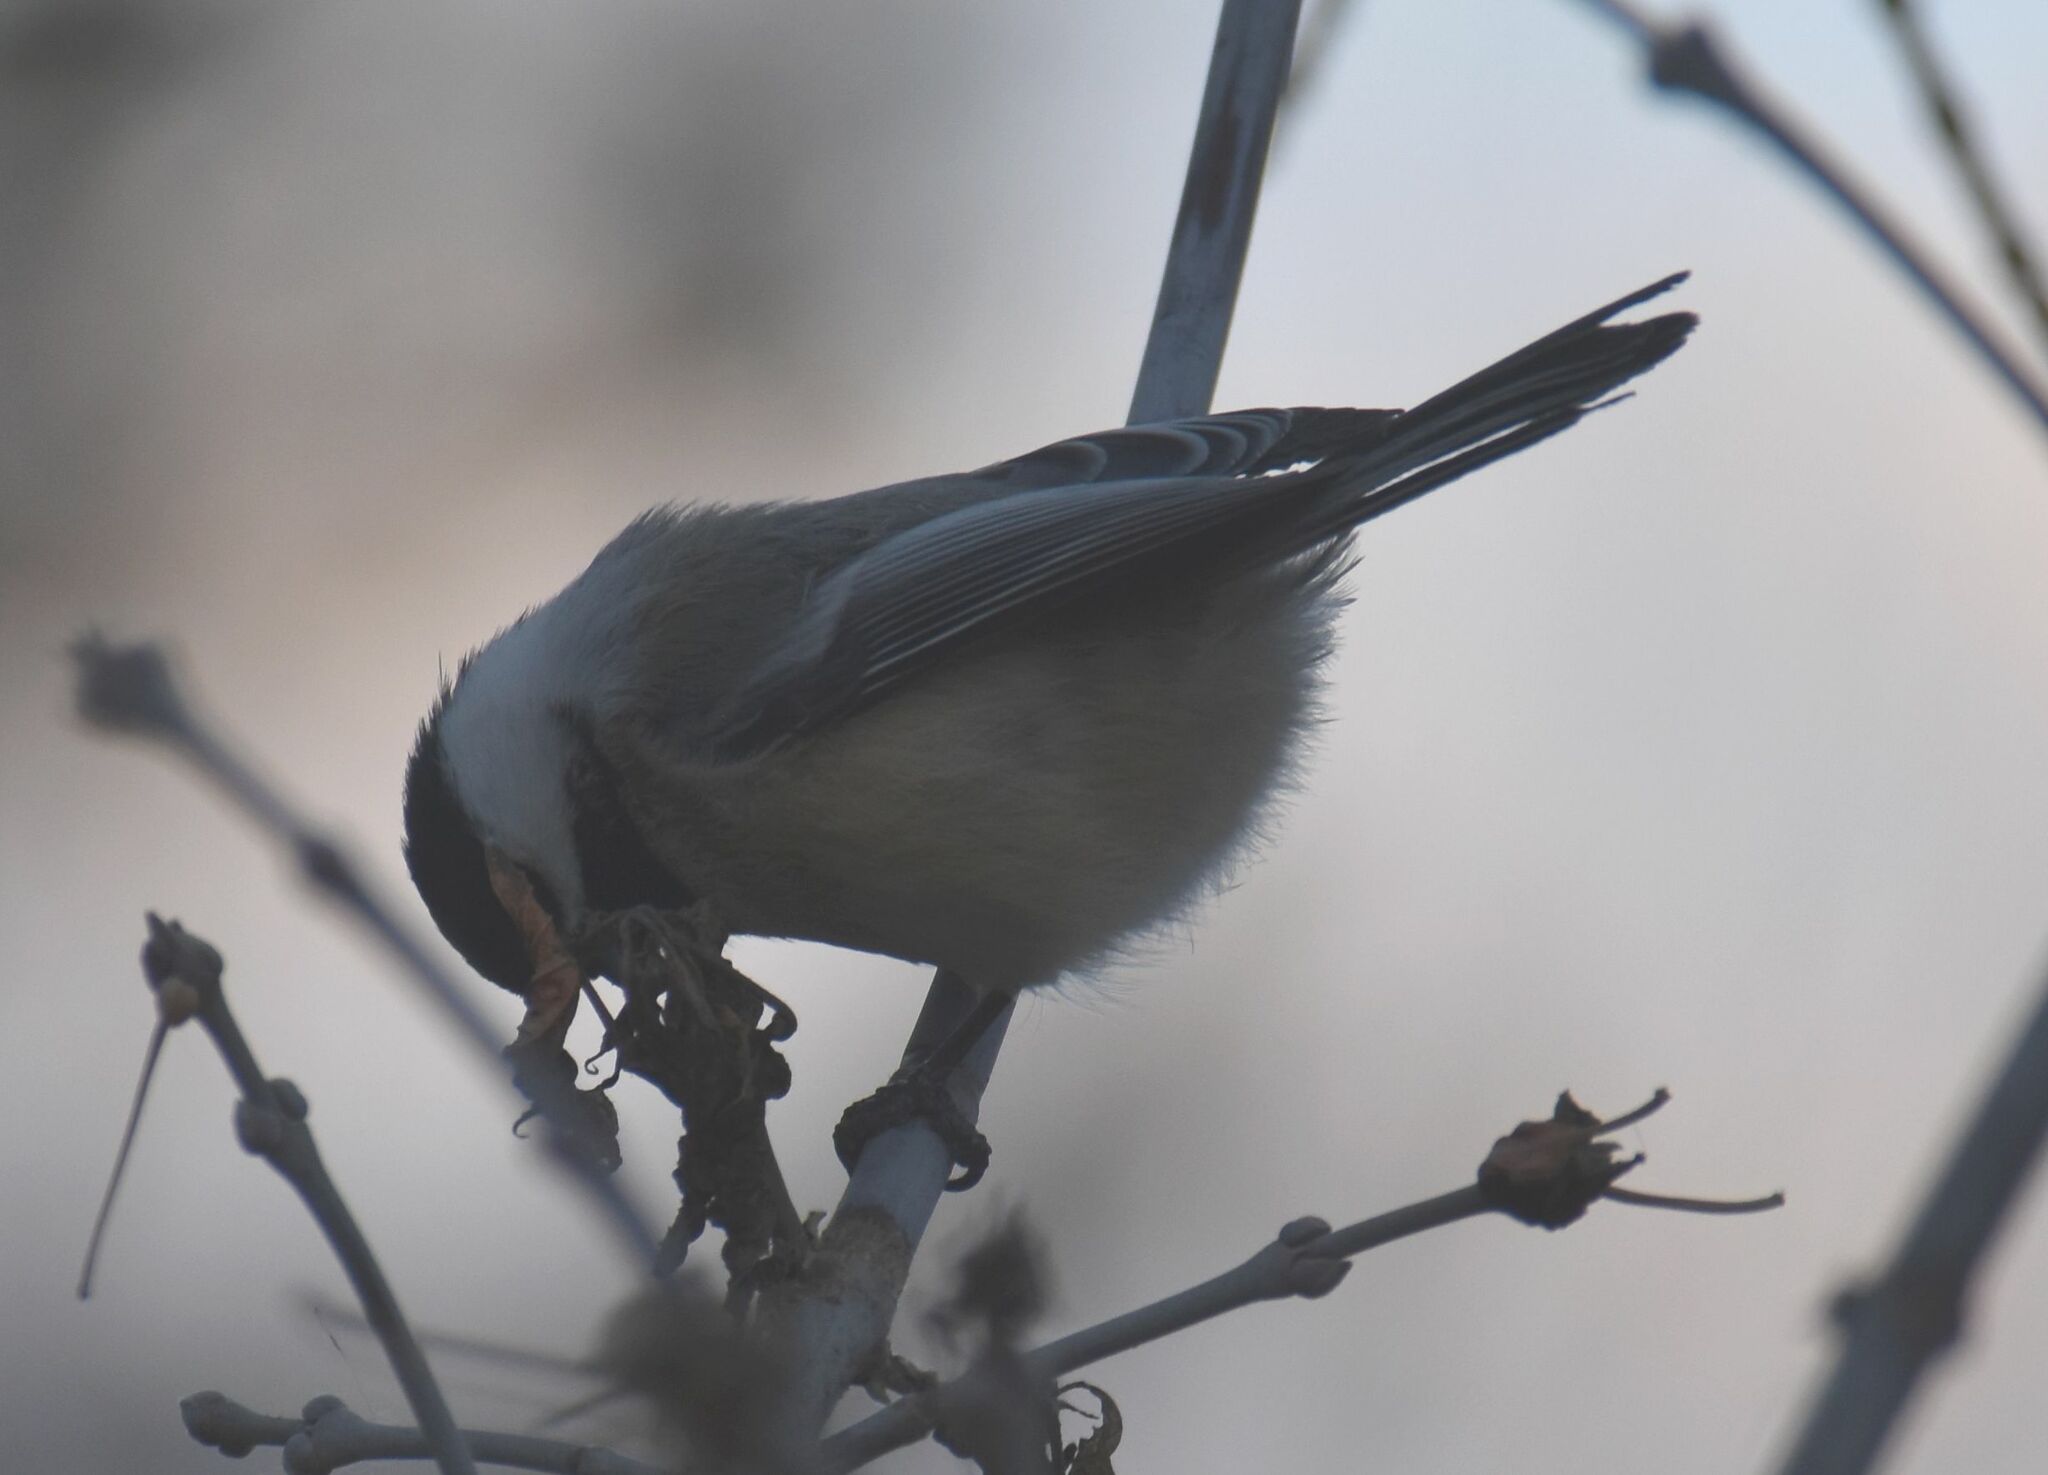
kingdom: Animalia
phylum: Chordata
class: Aves
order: Passeriformes
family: Paridae
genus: Poecile
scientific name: Poecile atricapillus
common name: Black-capped chickadee
